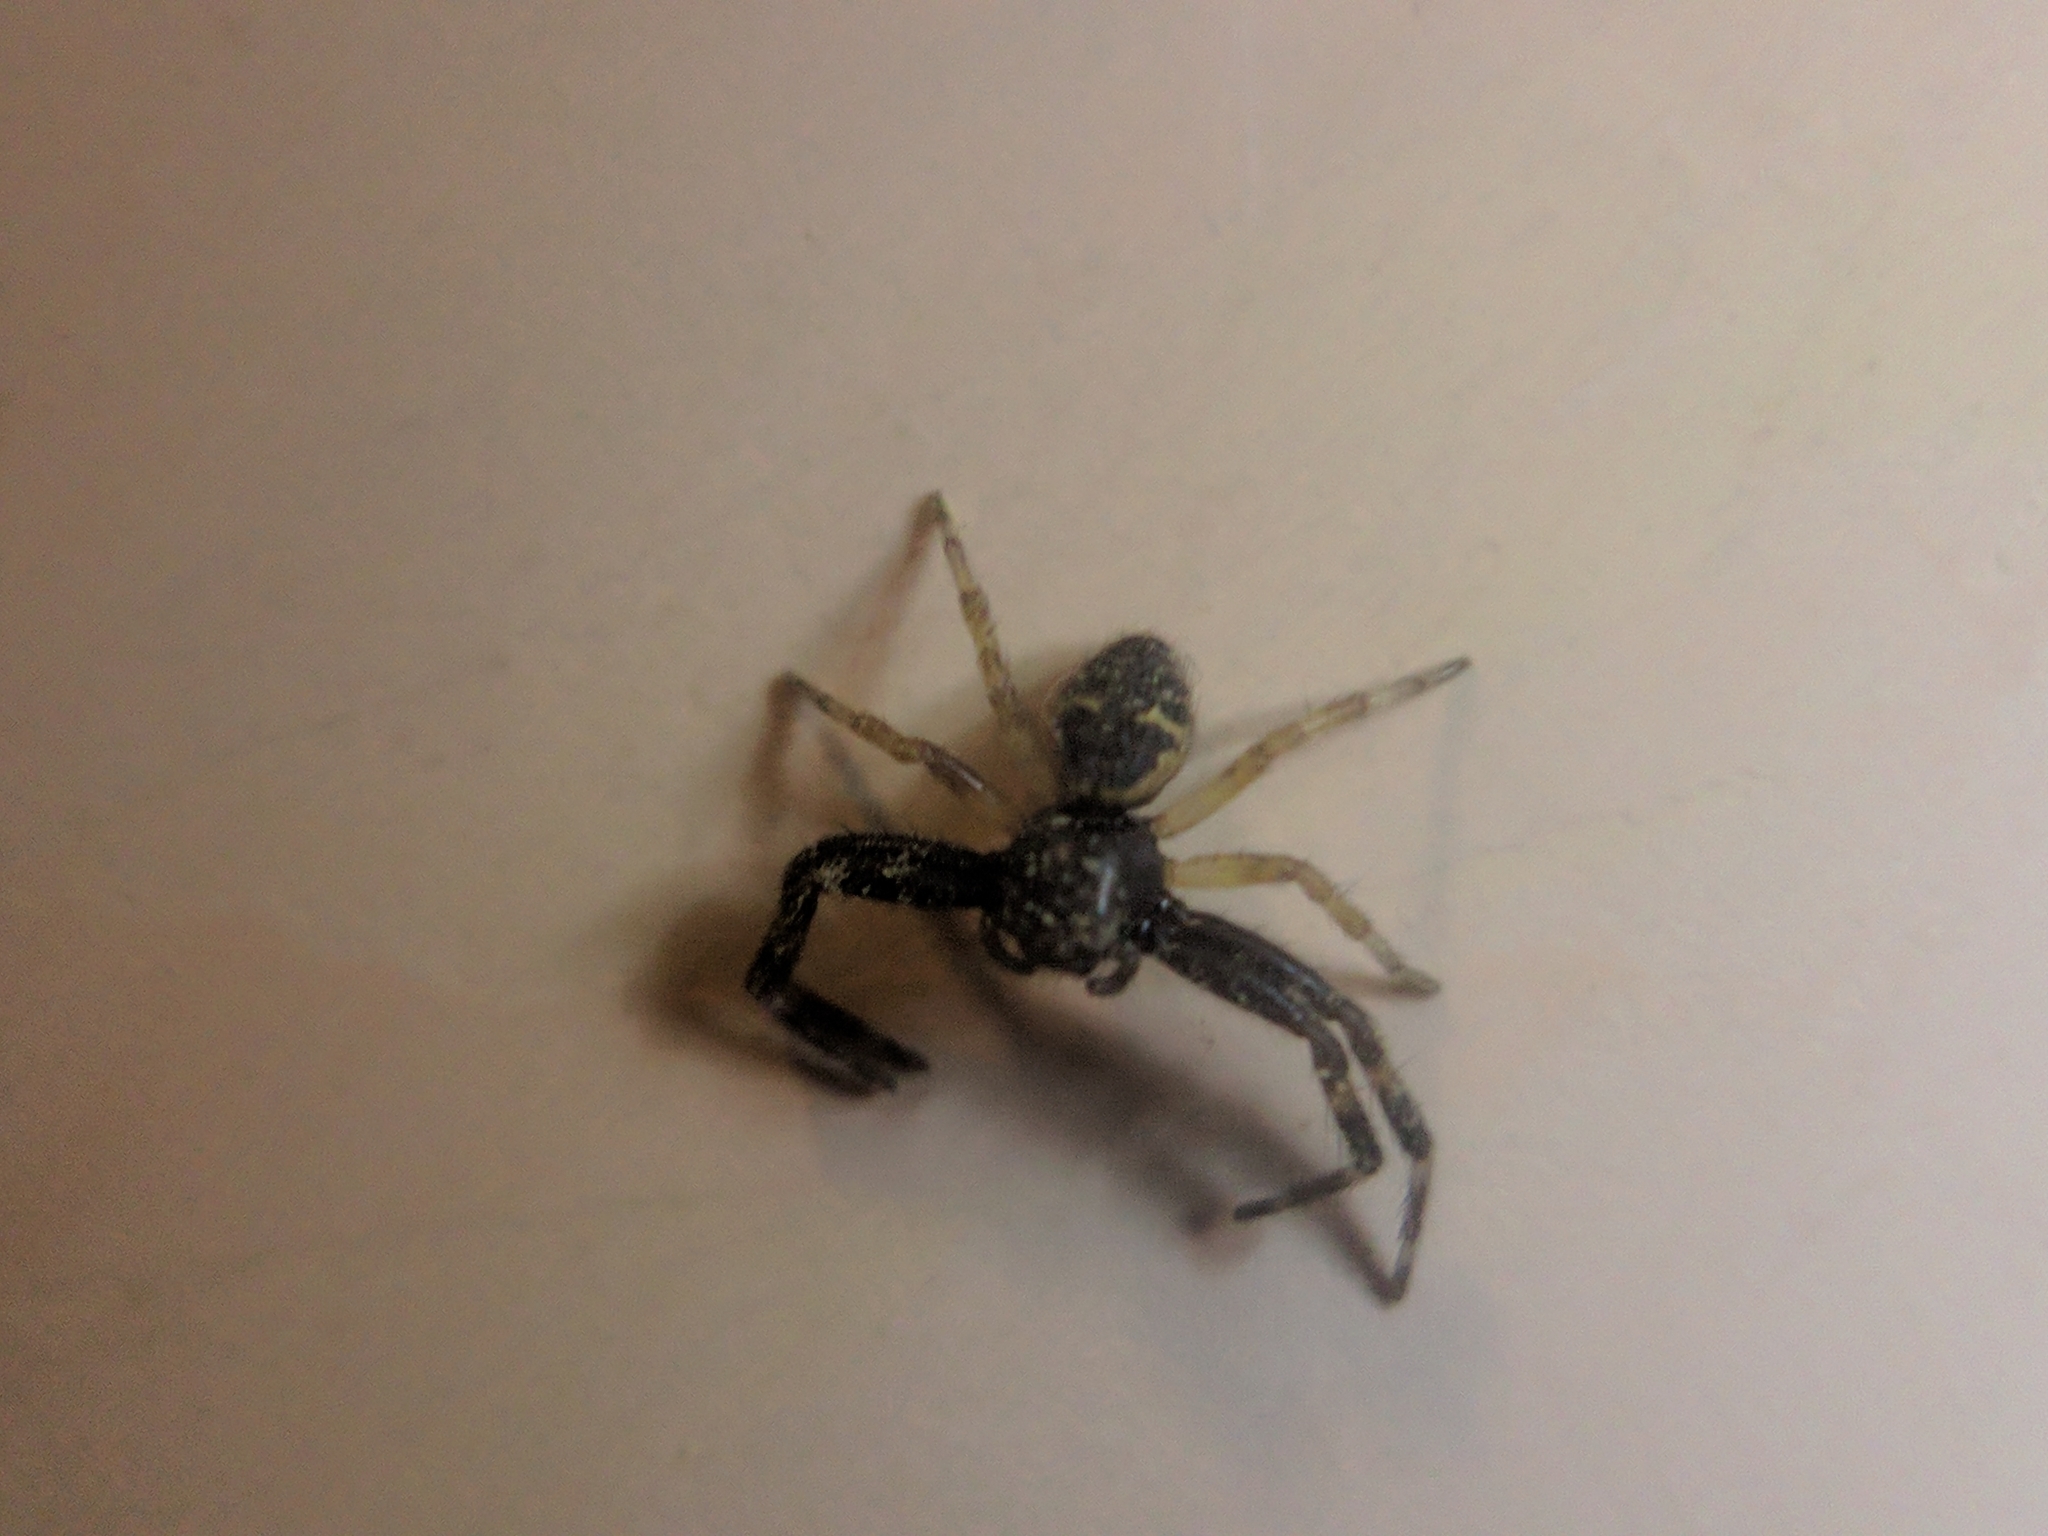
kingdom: Animalia
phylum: Arthropoda
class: Arachnida
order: Araneae
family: Thomisidae
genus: Synema
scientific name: Synema globosum
